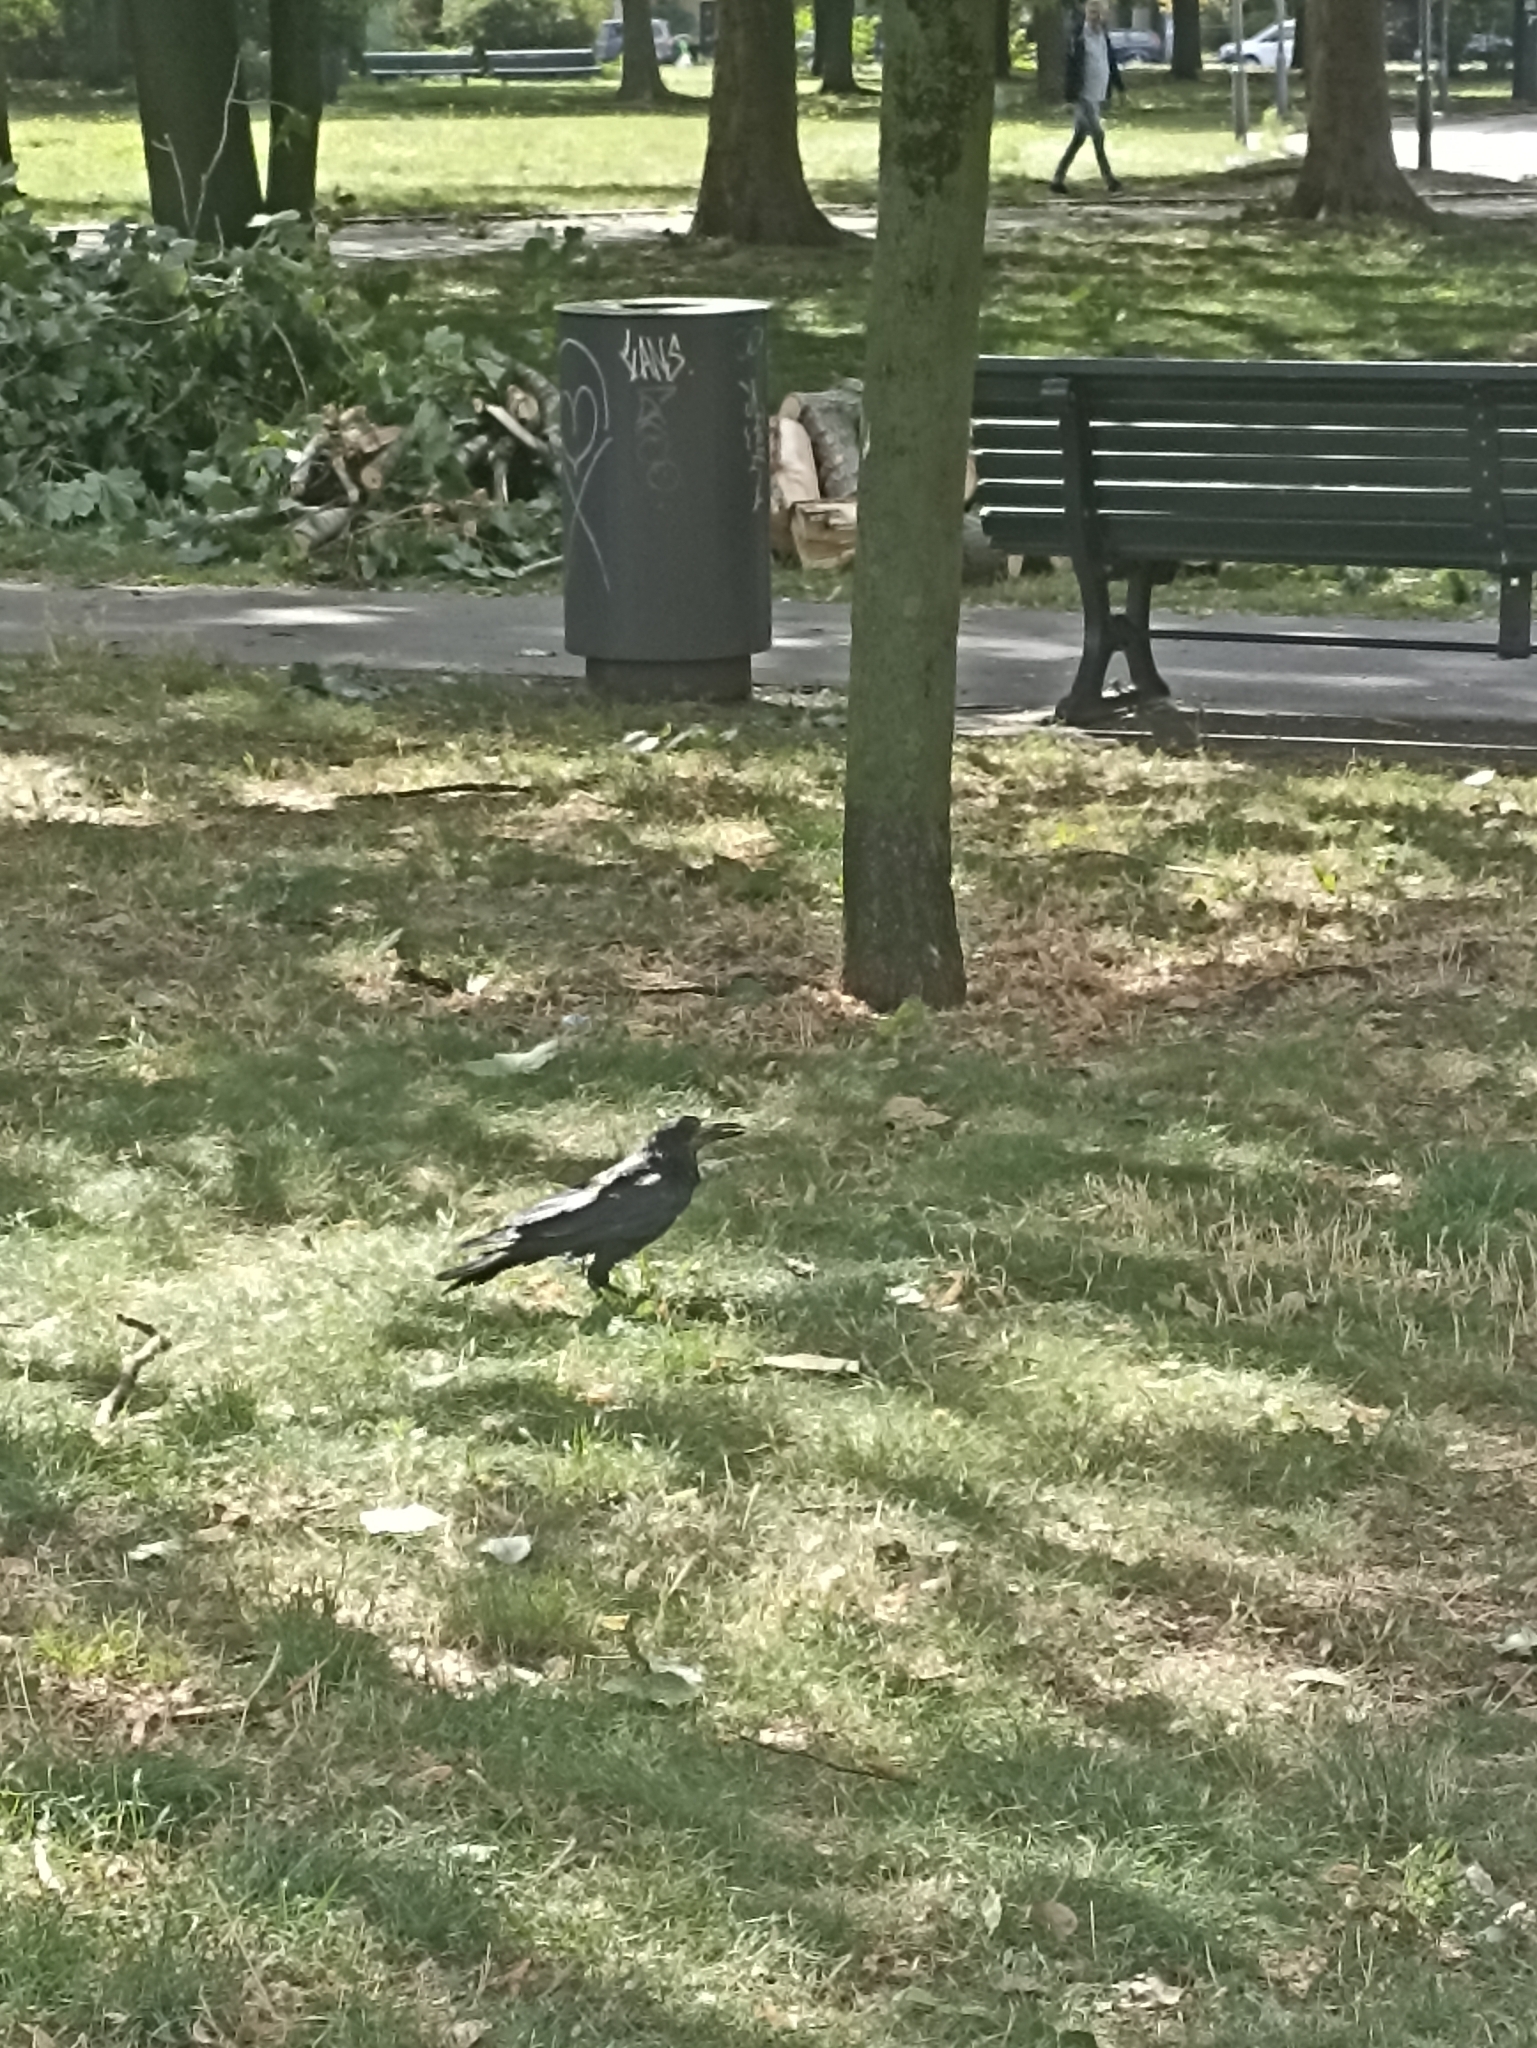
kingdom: Animalia
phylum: Chordata
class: Aves
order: Passeriformes
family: Corvidae
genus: Corvus
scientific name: Corvus frugilegus
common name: Rook
